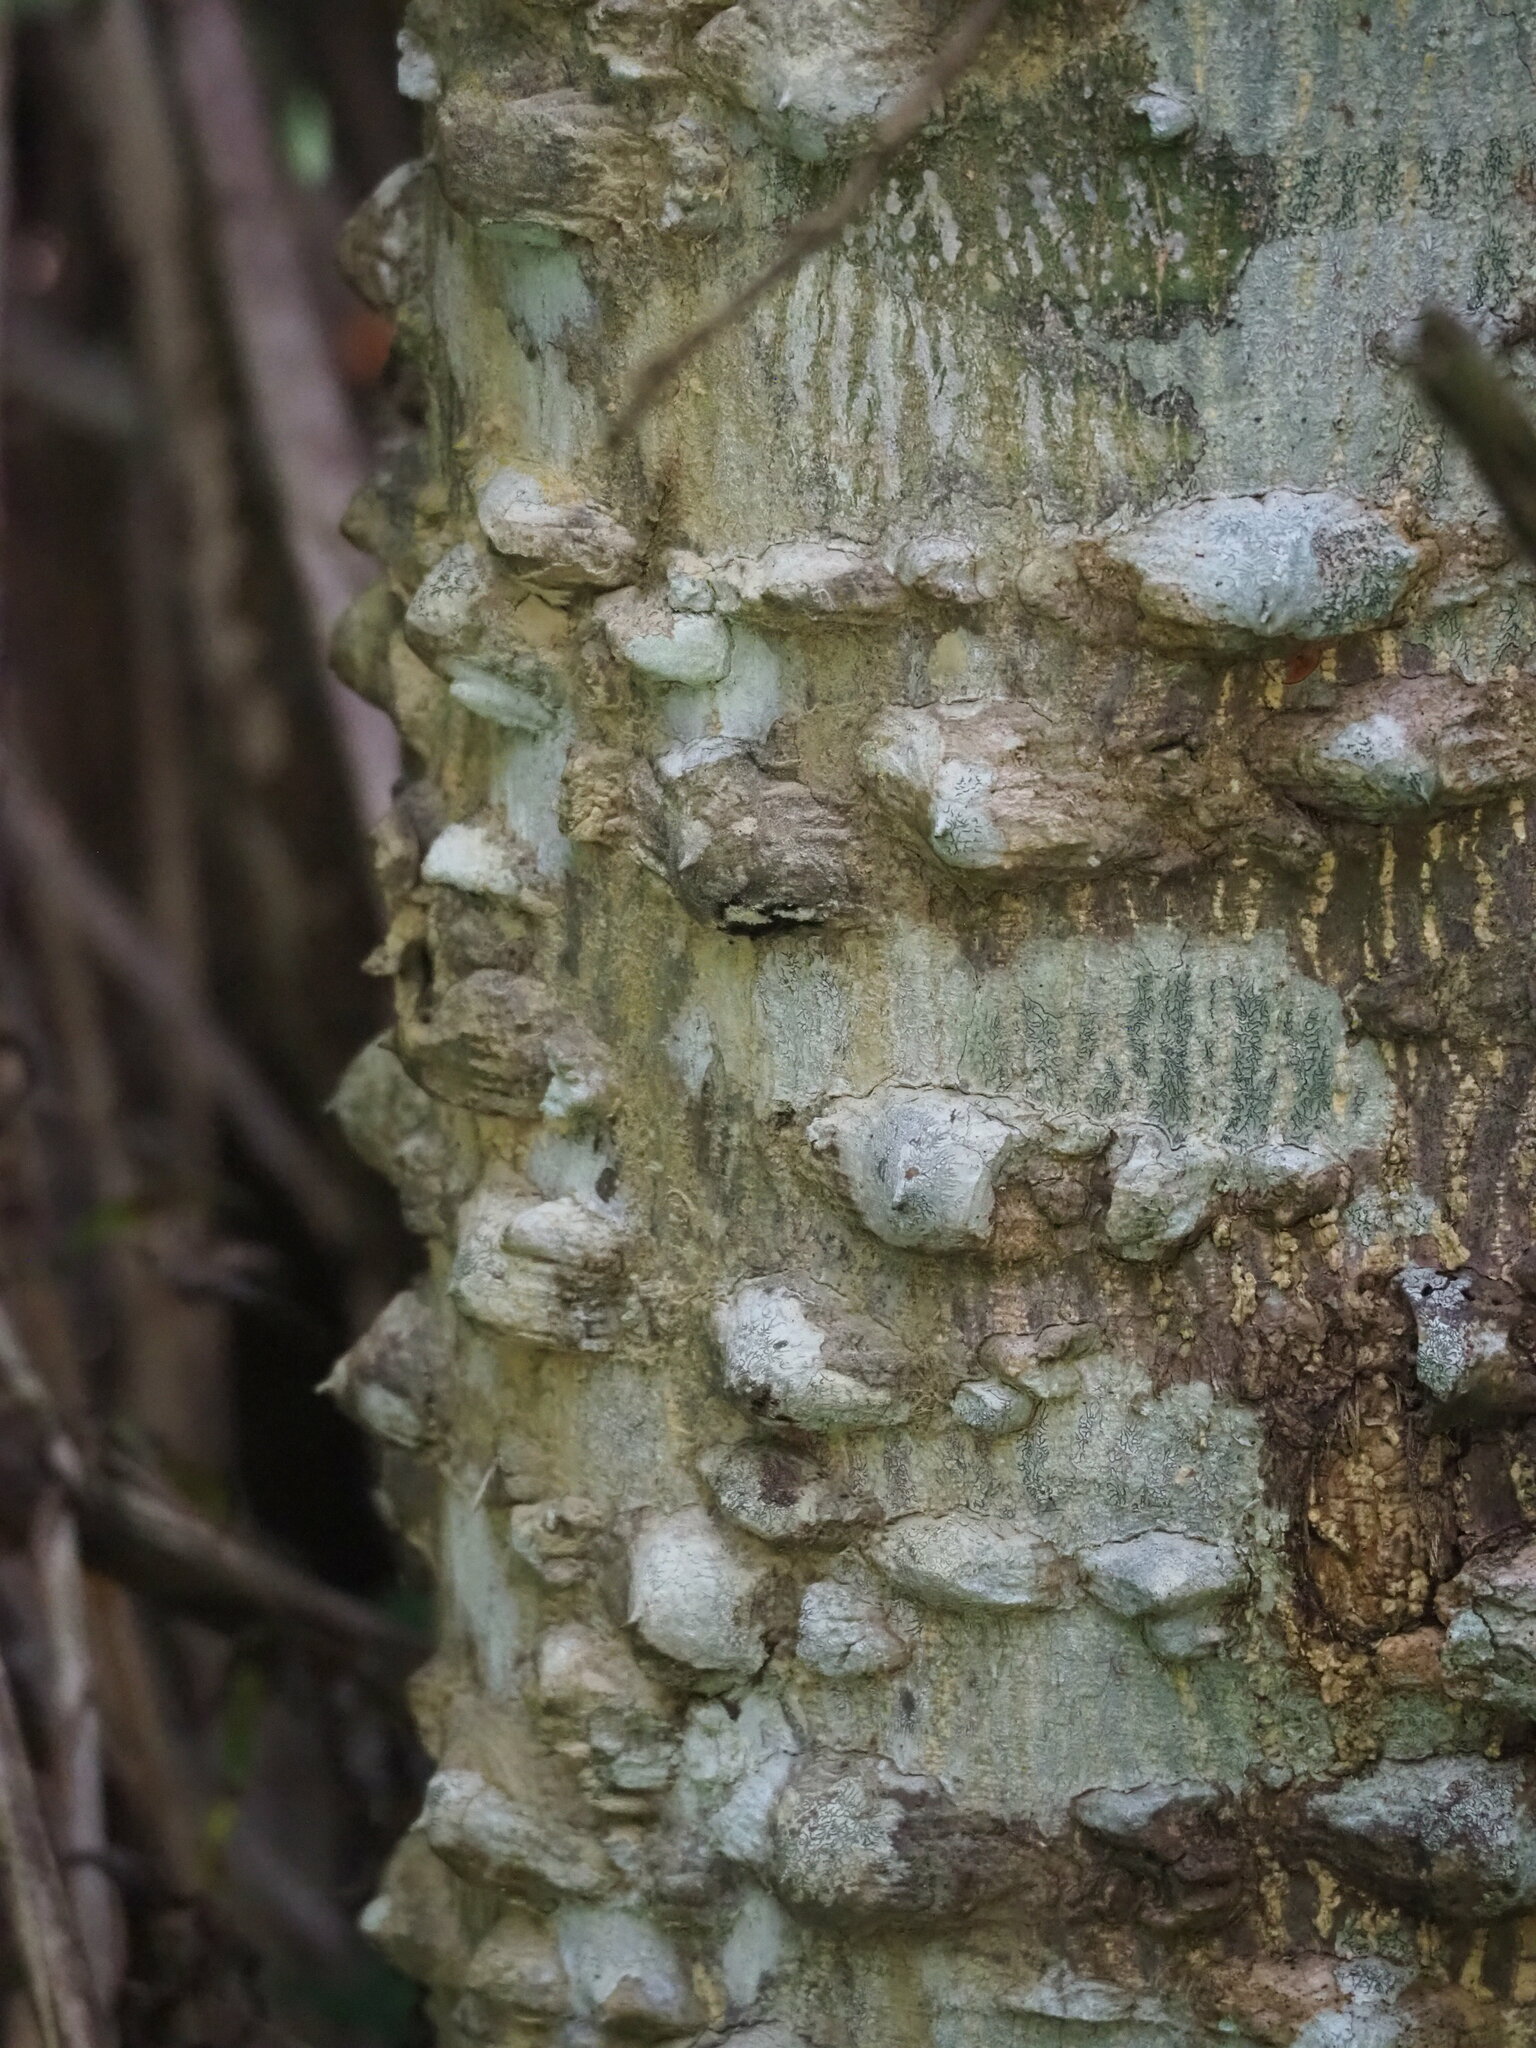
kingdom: Plantae
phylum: Tracheophyta
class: Magnoliopsida
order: Sapindales
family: Rutaceae
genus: Zanthoxylum
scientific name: Zanthoxylum ailanthoides
